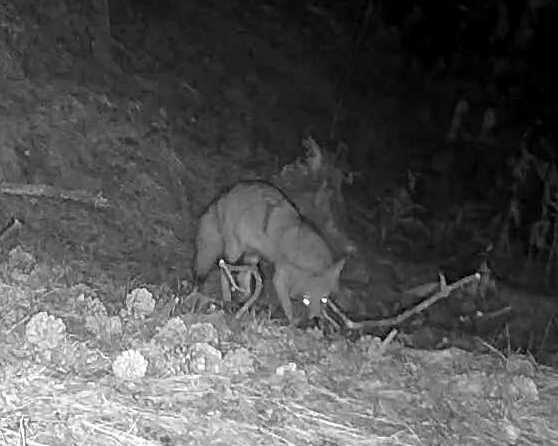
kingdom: Animalia
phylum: Chordata
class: Mammalia
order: Carnivora
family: Canidae
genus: Canis
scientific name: Canis latrans
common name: Coyote
